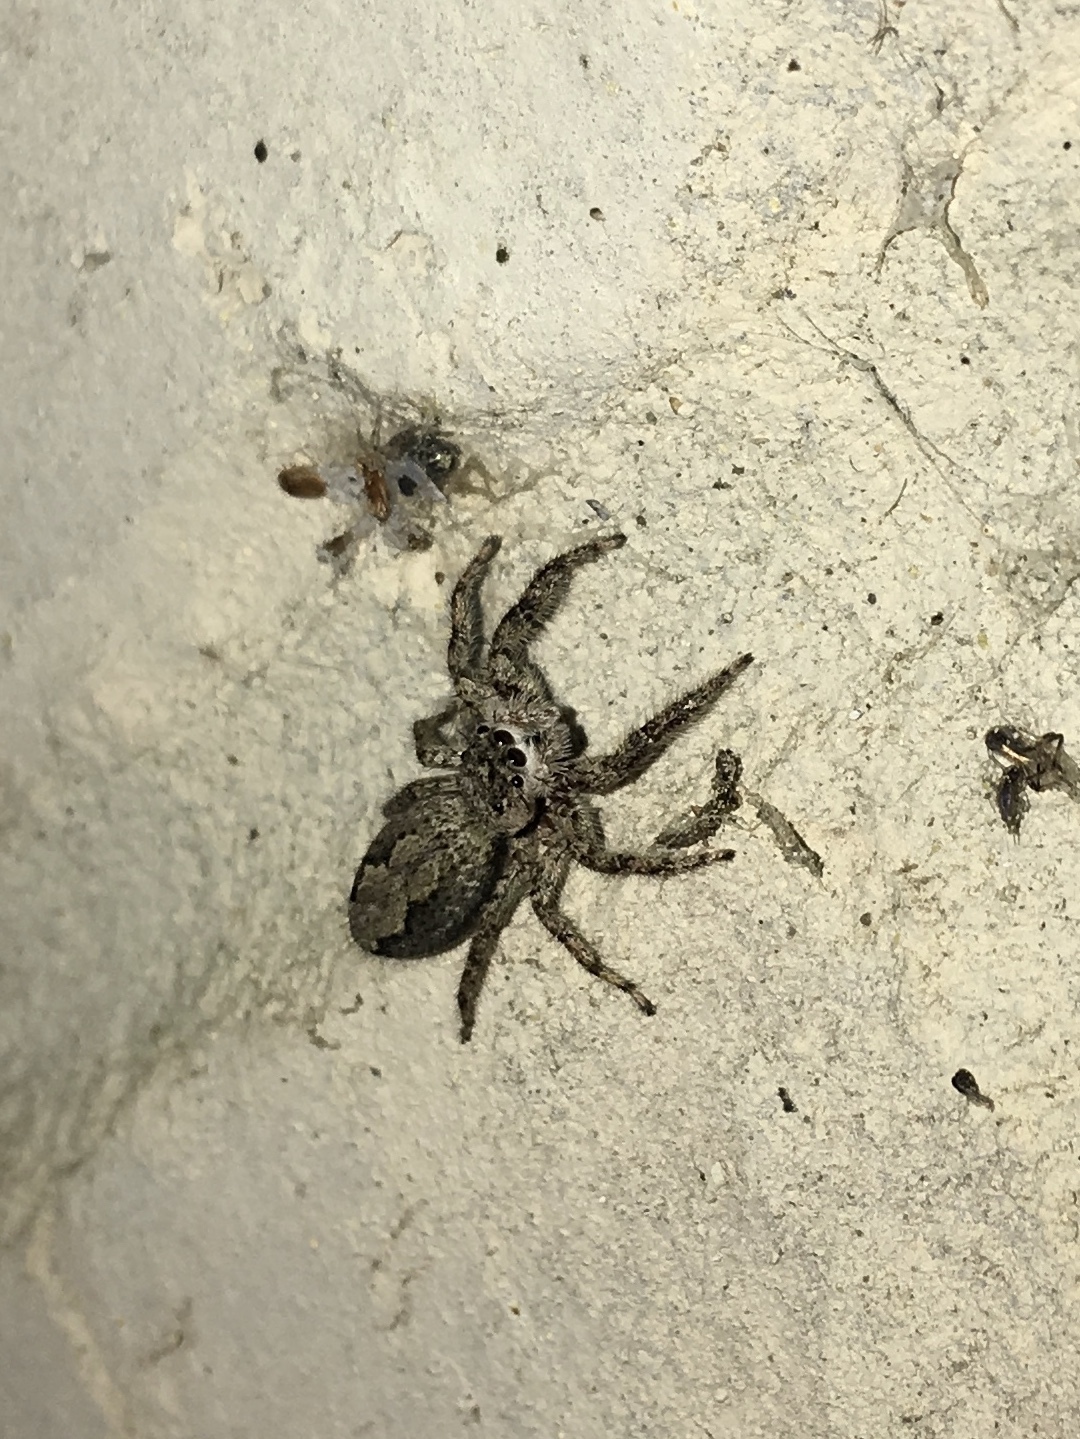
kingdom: Animalia
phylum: Arthropoda
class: Arachnida
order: Araneae
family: Salticidae
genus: Platycryptus
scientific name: Platycryptus undatus
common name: Tan jumping spider
